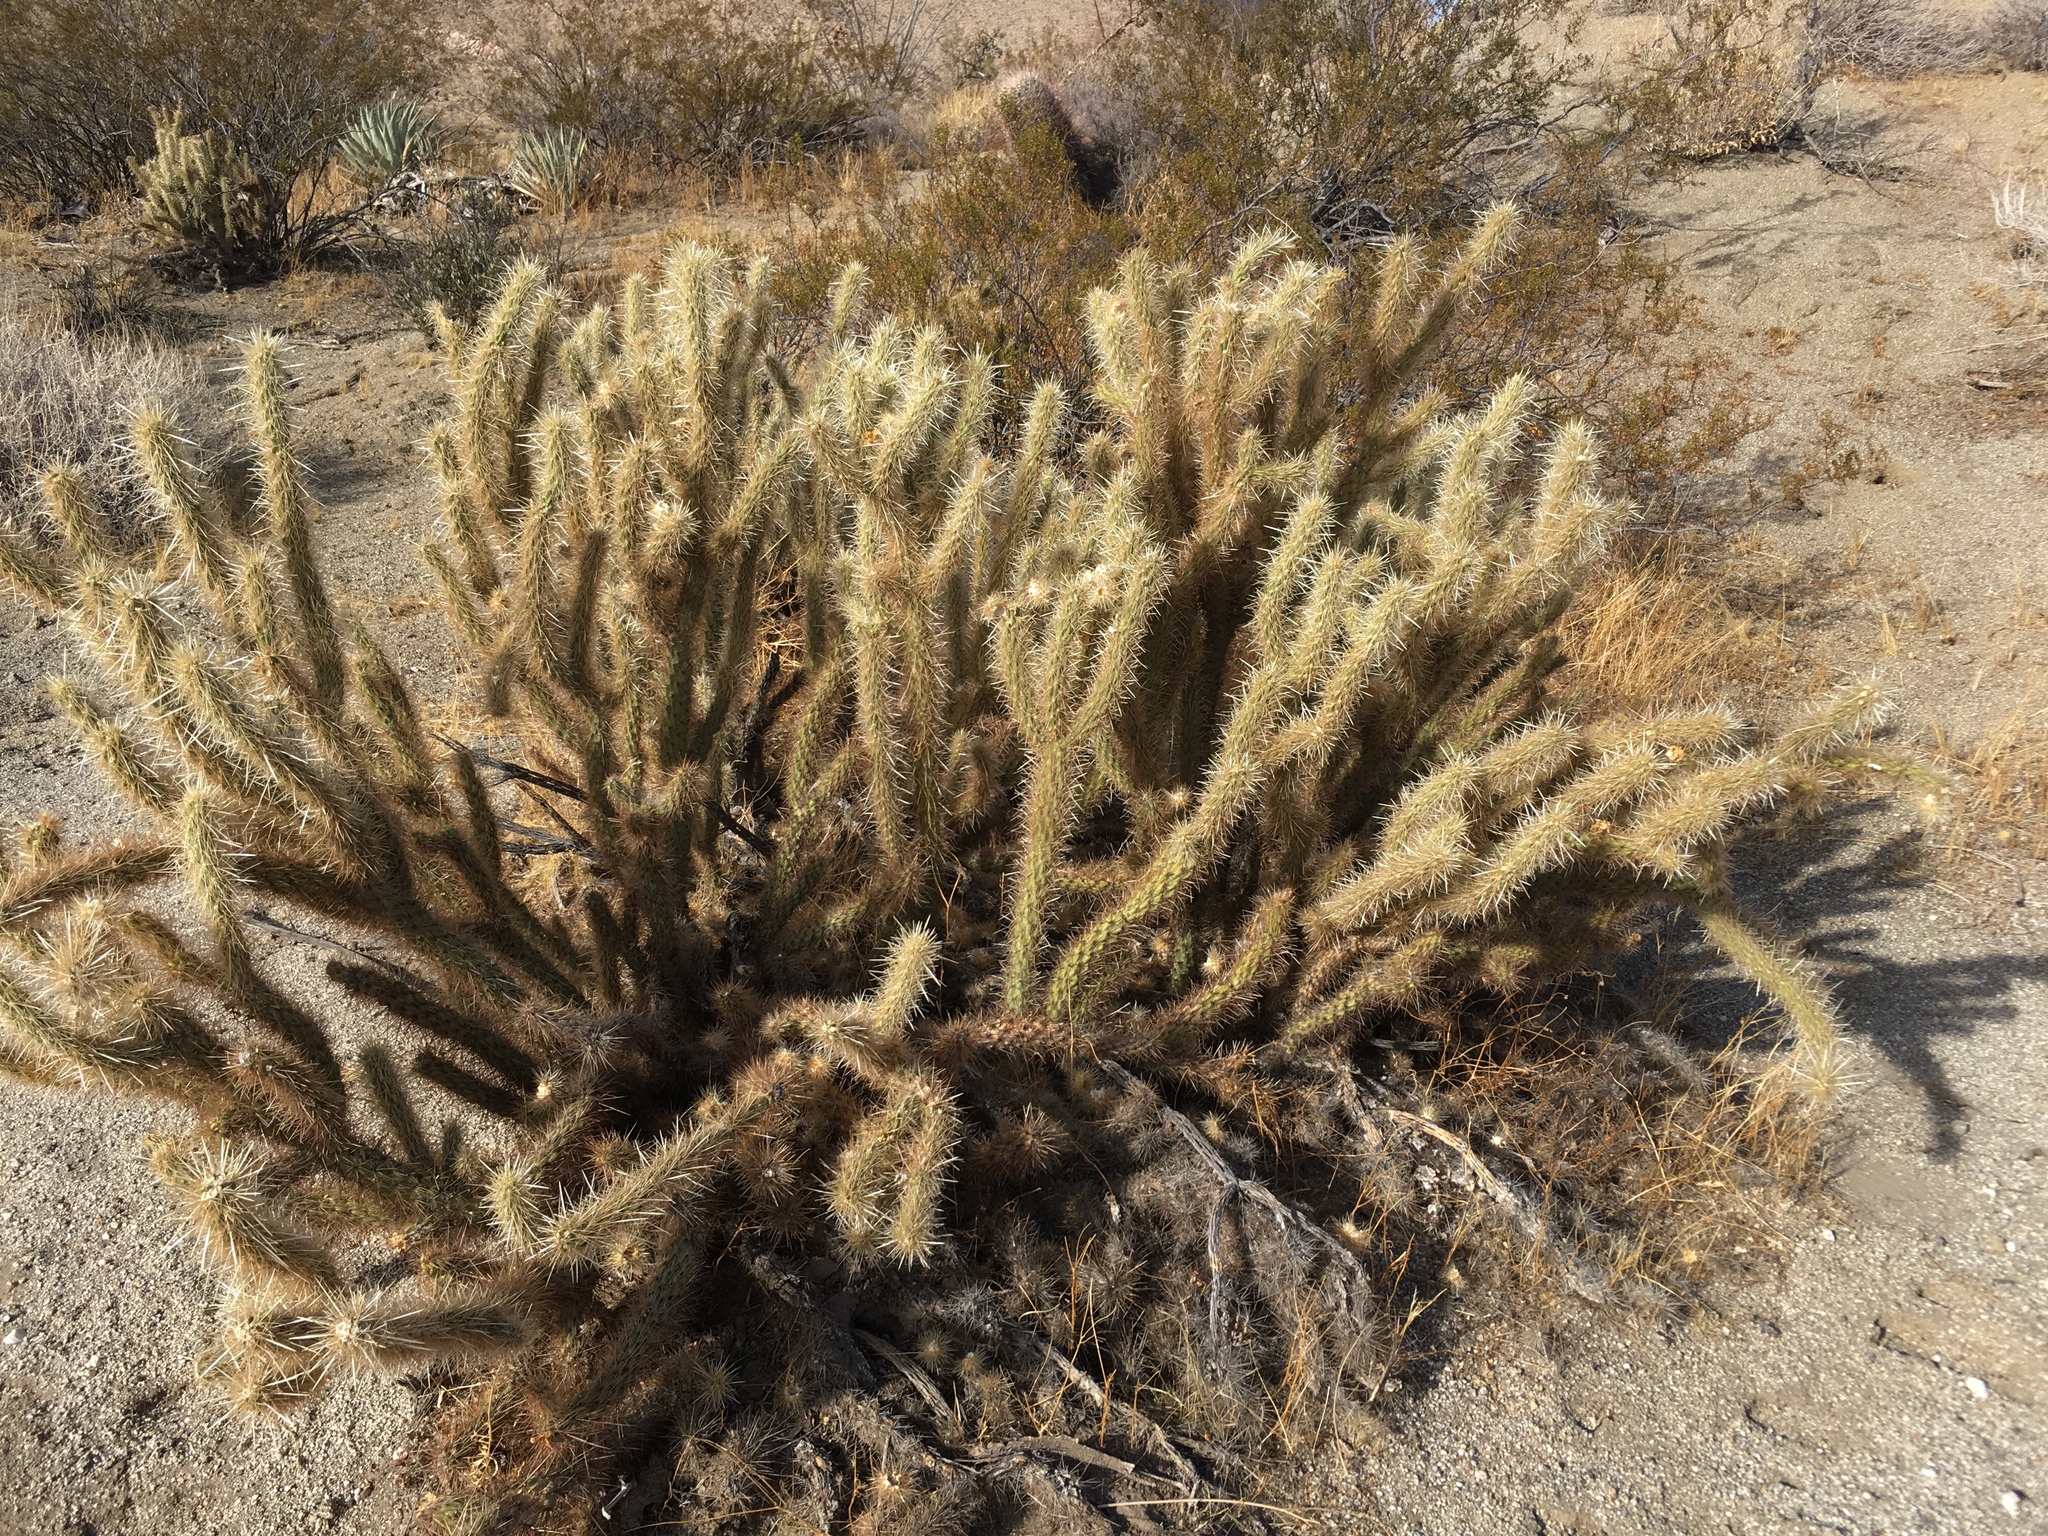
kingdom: Plantae
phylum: Tracheophyta
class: Magnoliopsida
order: Caryophyllales
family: Cactaceae
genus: Cylindropuntia
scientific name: Cylindropuntia ganderi
